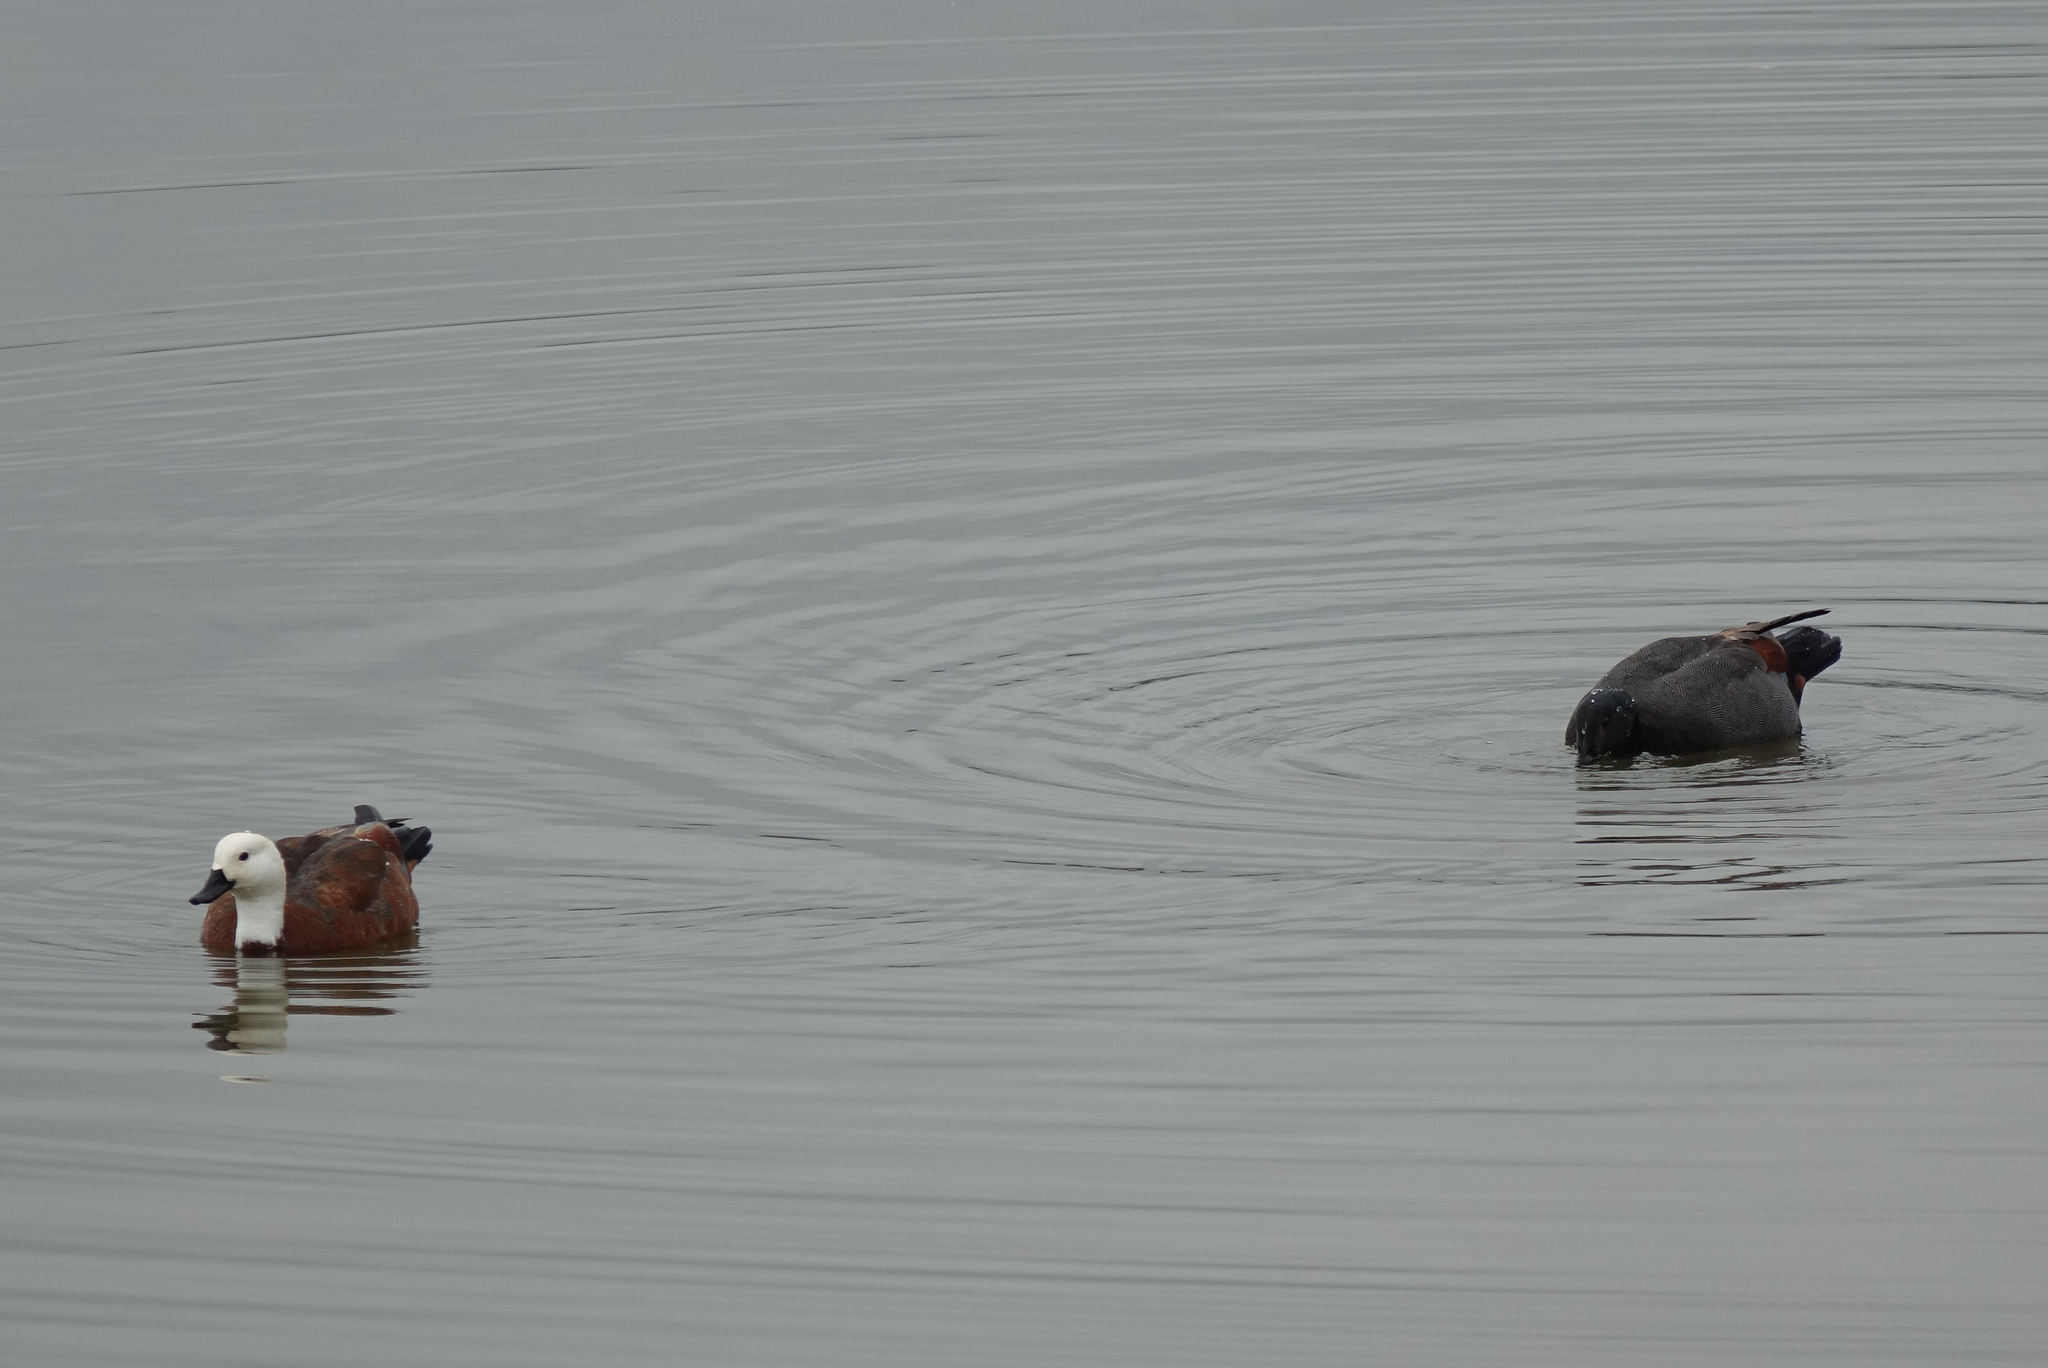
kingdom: Animalia
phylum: Chordata
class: Aves
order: Anseriformes
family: Anatidae
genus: Tadorna
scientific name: Tadorna variegata
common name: Paradise shelduck
